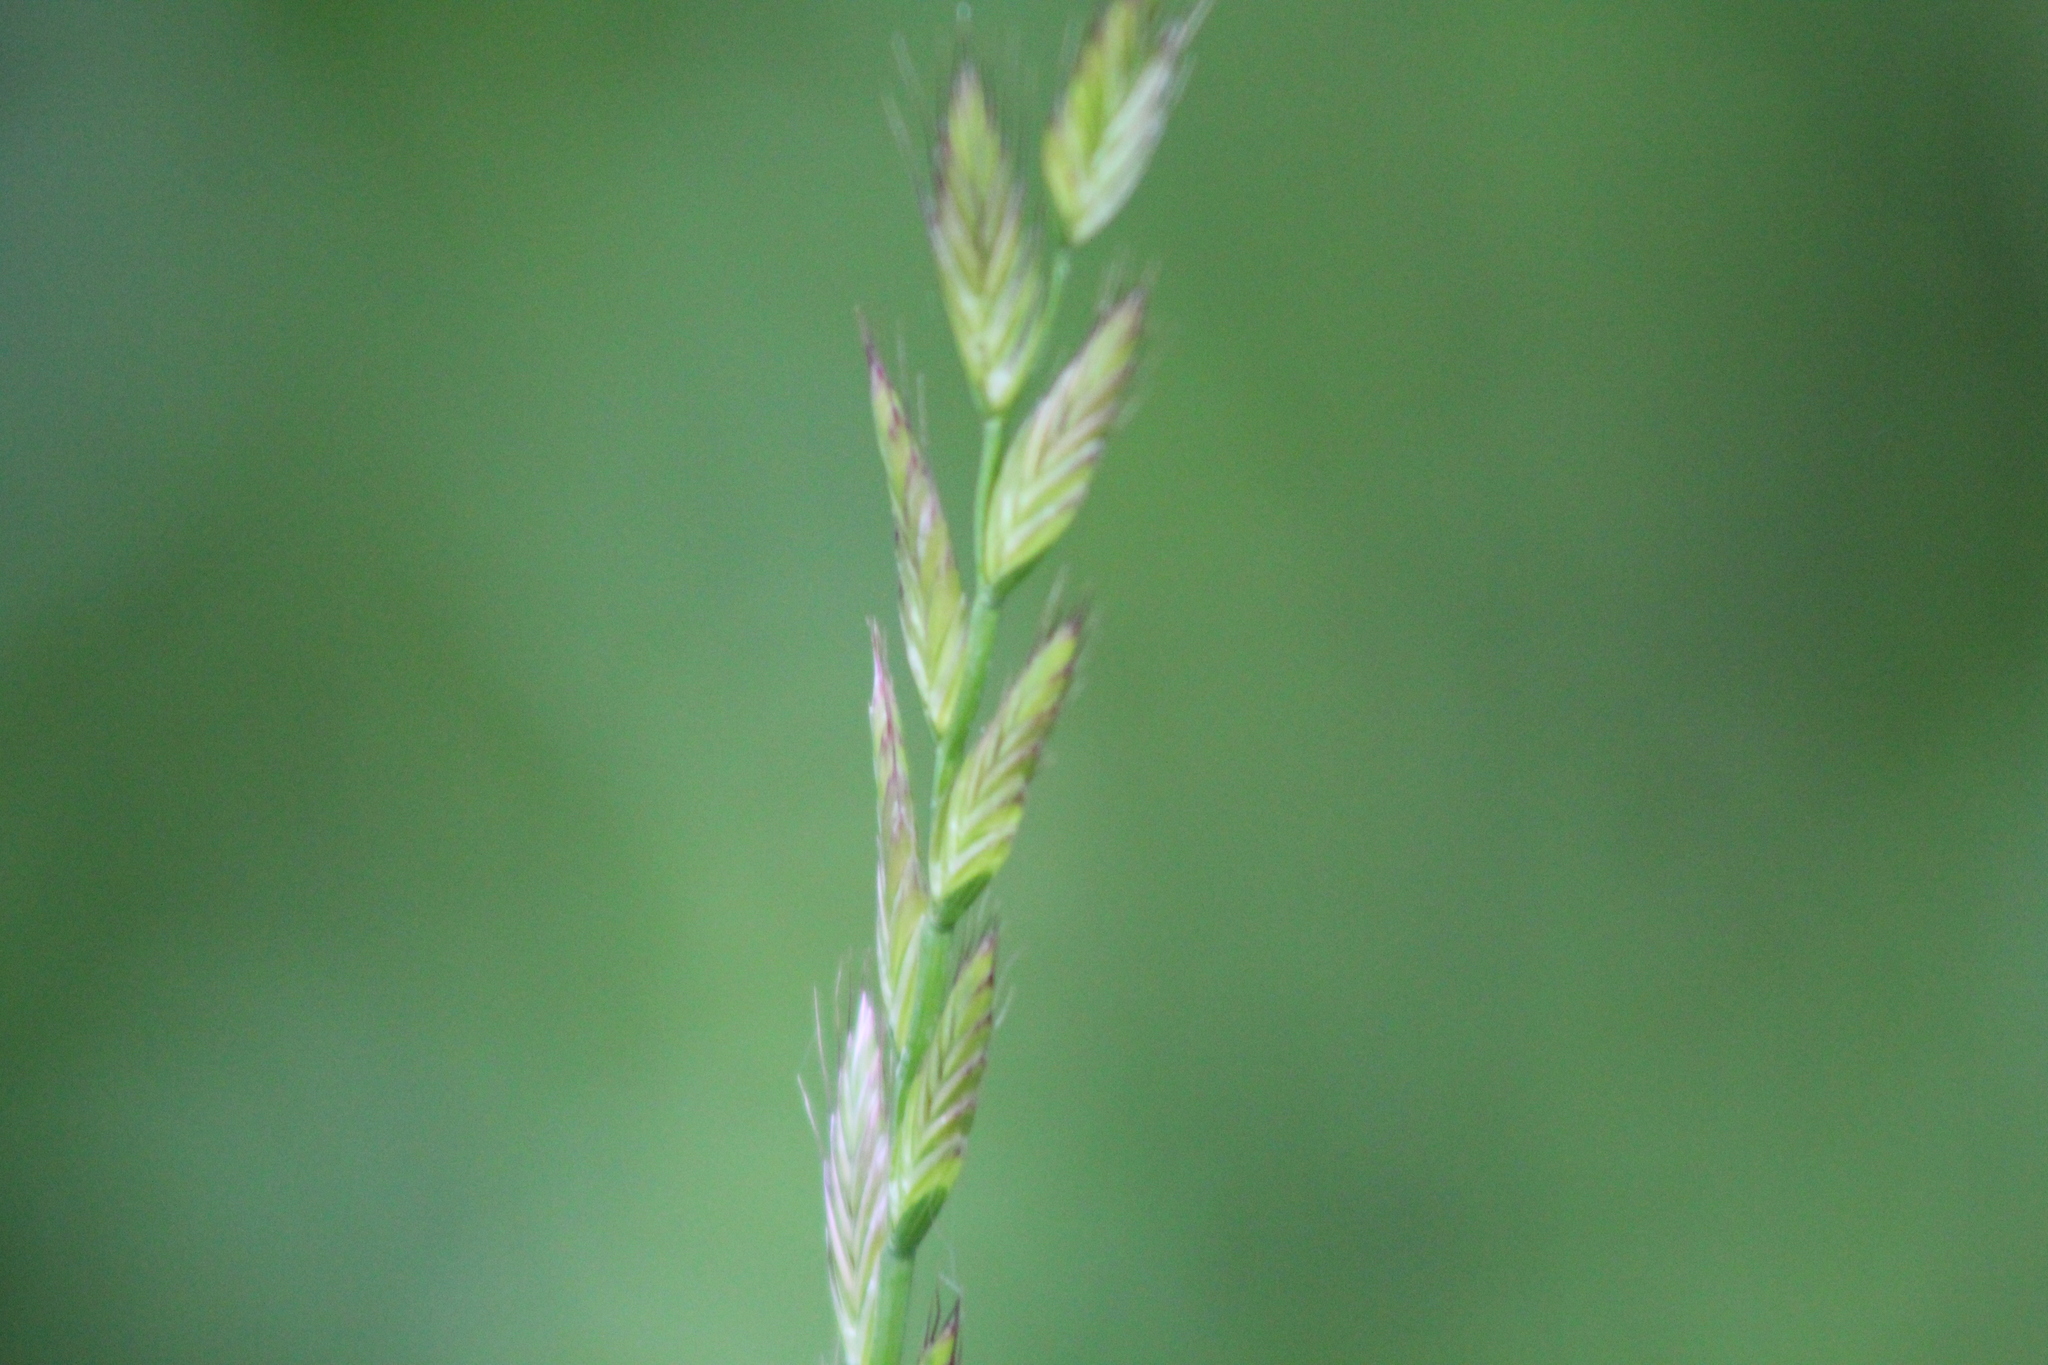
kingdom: Plantae
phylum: Tracheophyta
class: Liliopsida
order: Poales
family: Poaceae
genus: Lolium
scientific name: Lolium perenne
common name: Perennial ryegrass
